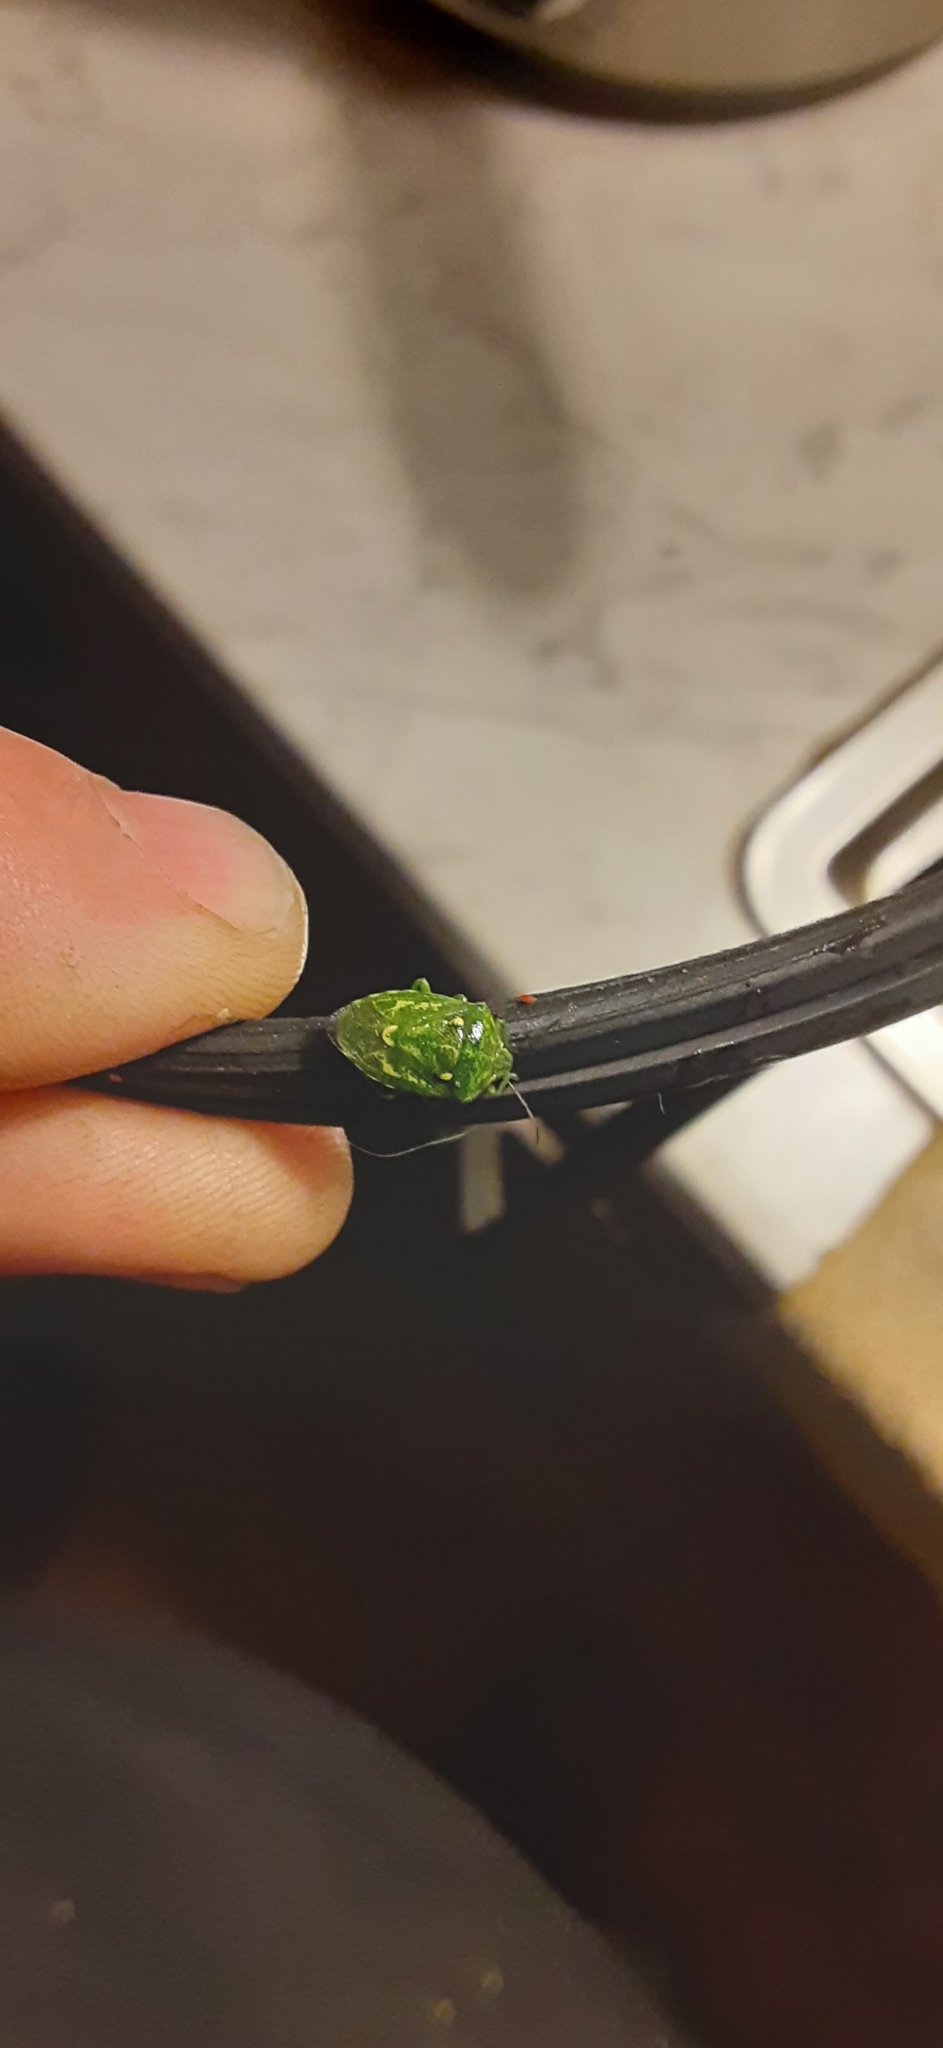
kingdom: Animalia
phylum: Arthropoda
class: Insecta
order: Hemiptera
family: Pentatomidae
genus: Banasa
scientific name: Banasa euchlora
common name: Cedar berry bug
